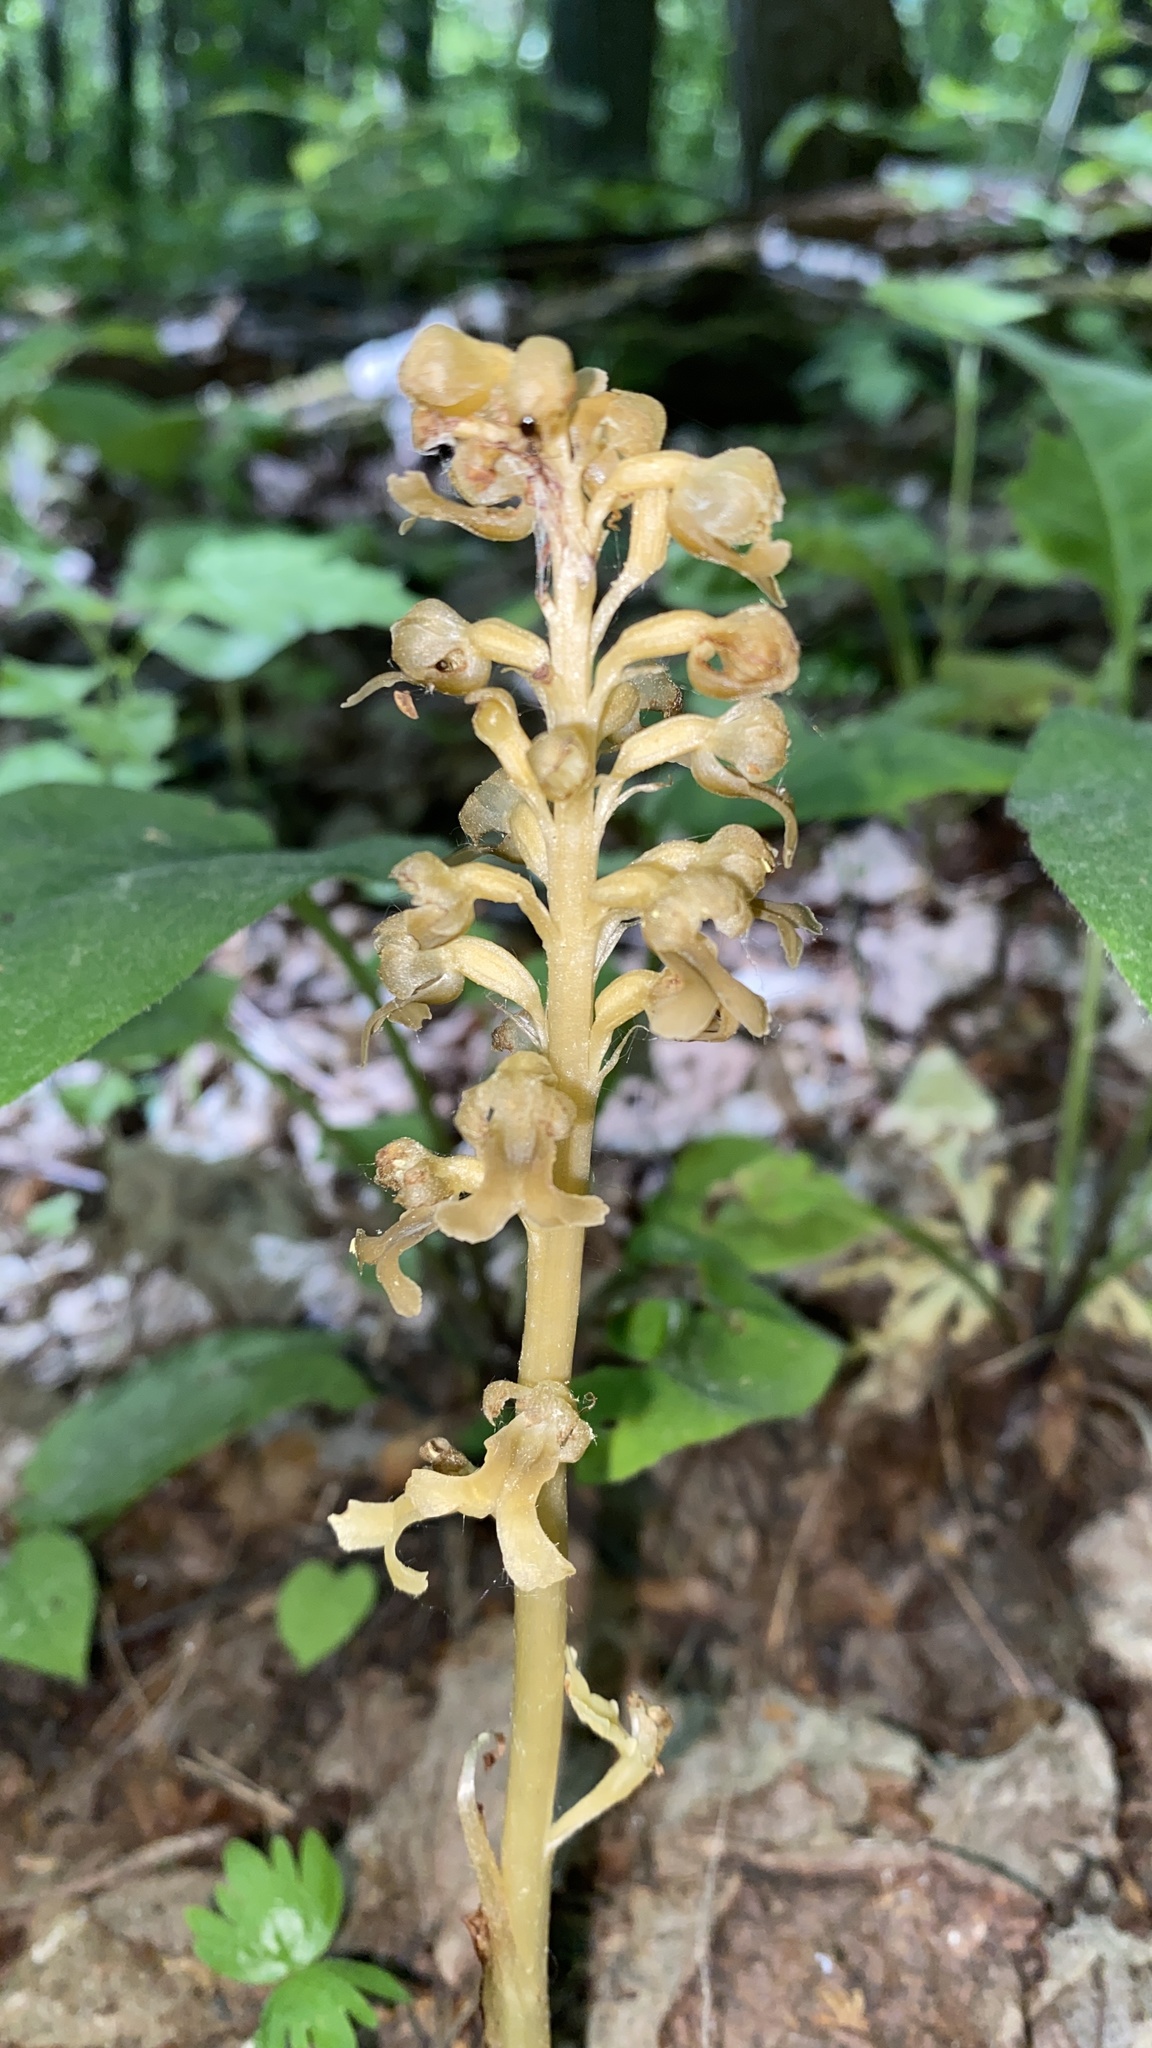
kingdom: Plantae
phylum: Tracheophyta
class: Liliopsida
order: Asparagales
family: Orchidaceae
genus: Neottia
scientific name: Neottia nidus-avis
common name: Bird's-nest orchid
